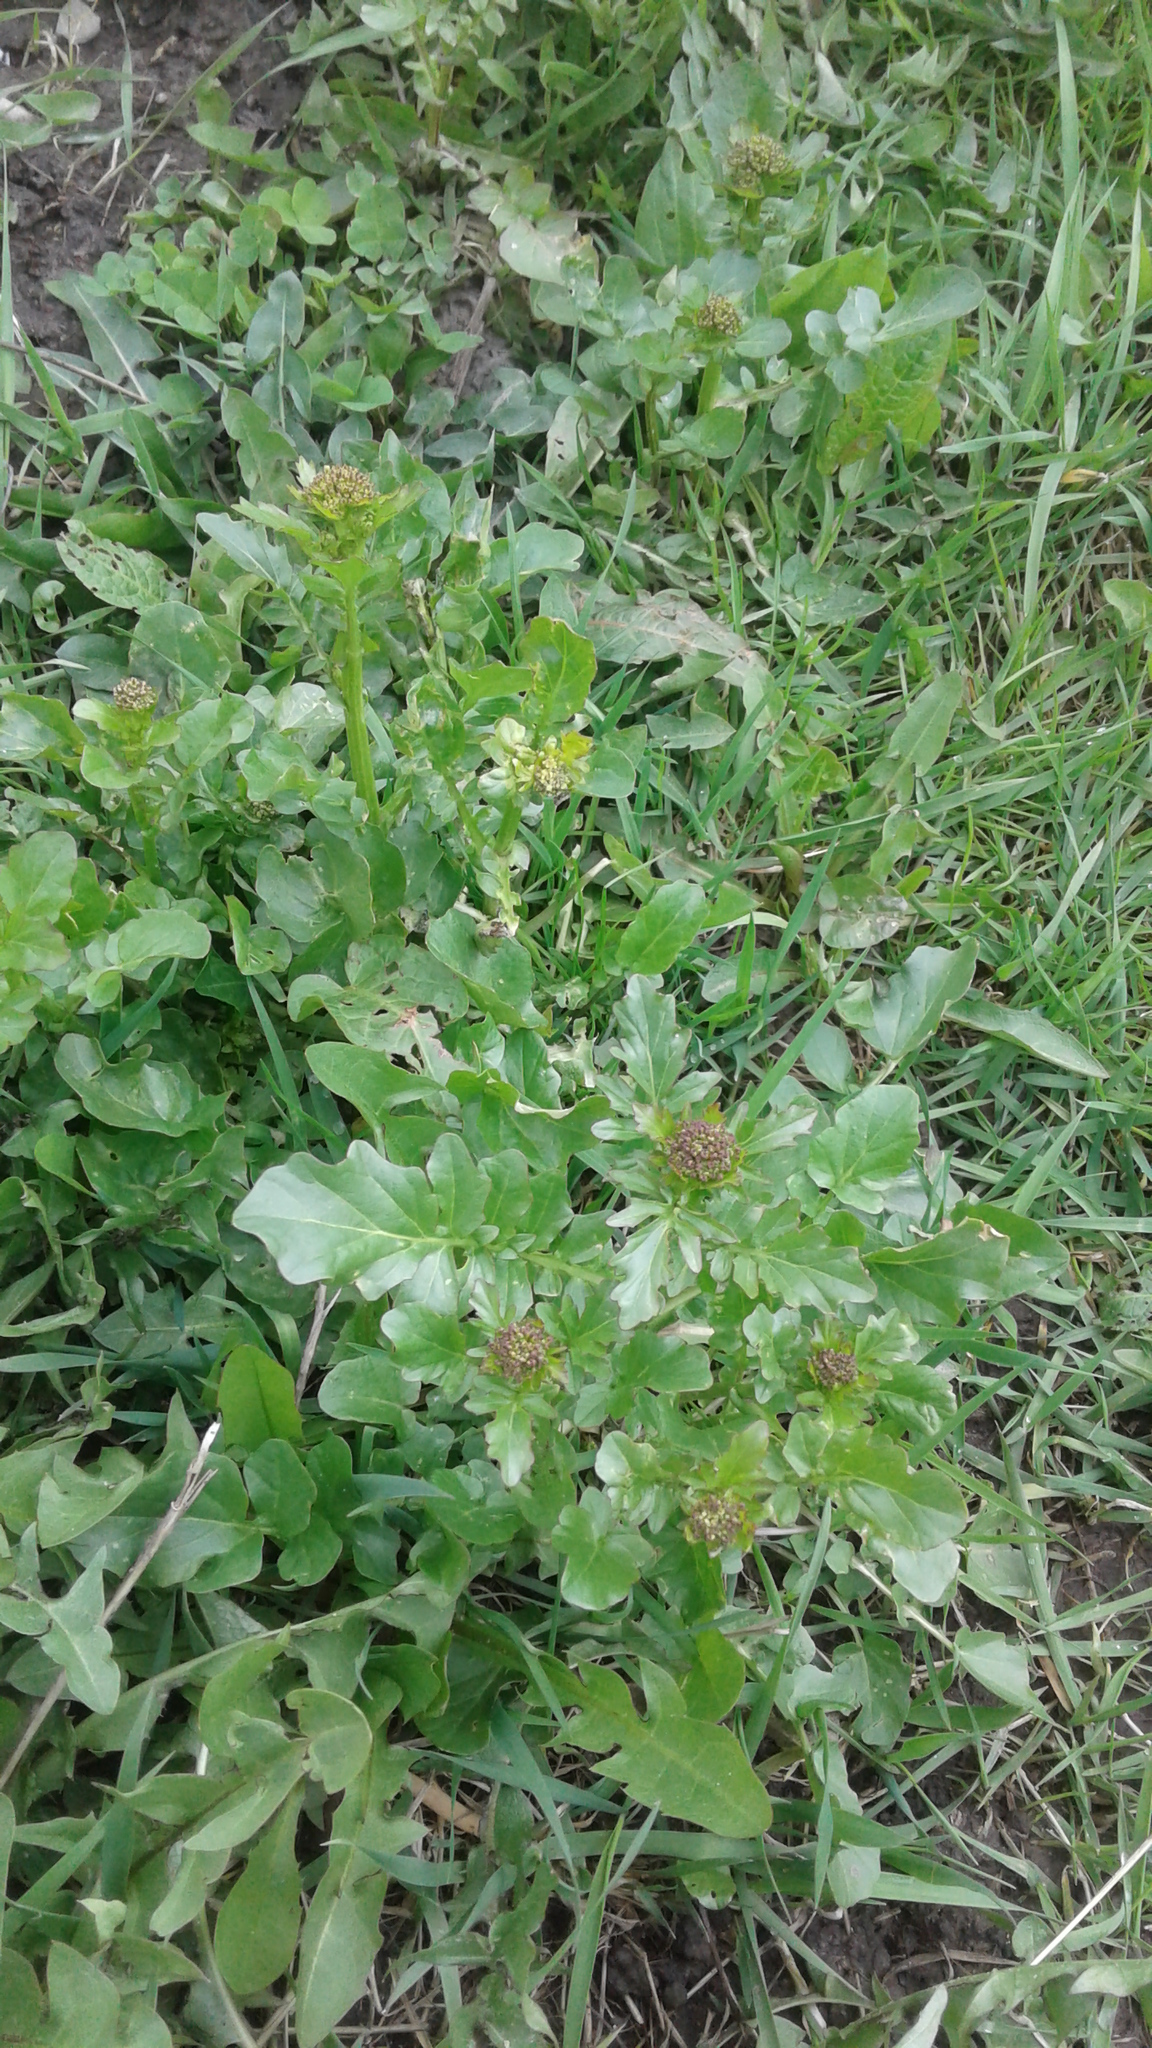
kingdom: Plantae
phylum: Tracheophyta
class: Magnoliopsida
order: Brassicales
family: Brassicaceae
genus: Barbarea
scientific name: Barbarea vulgaris
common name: Cressy-greens
